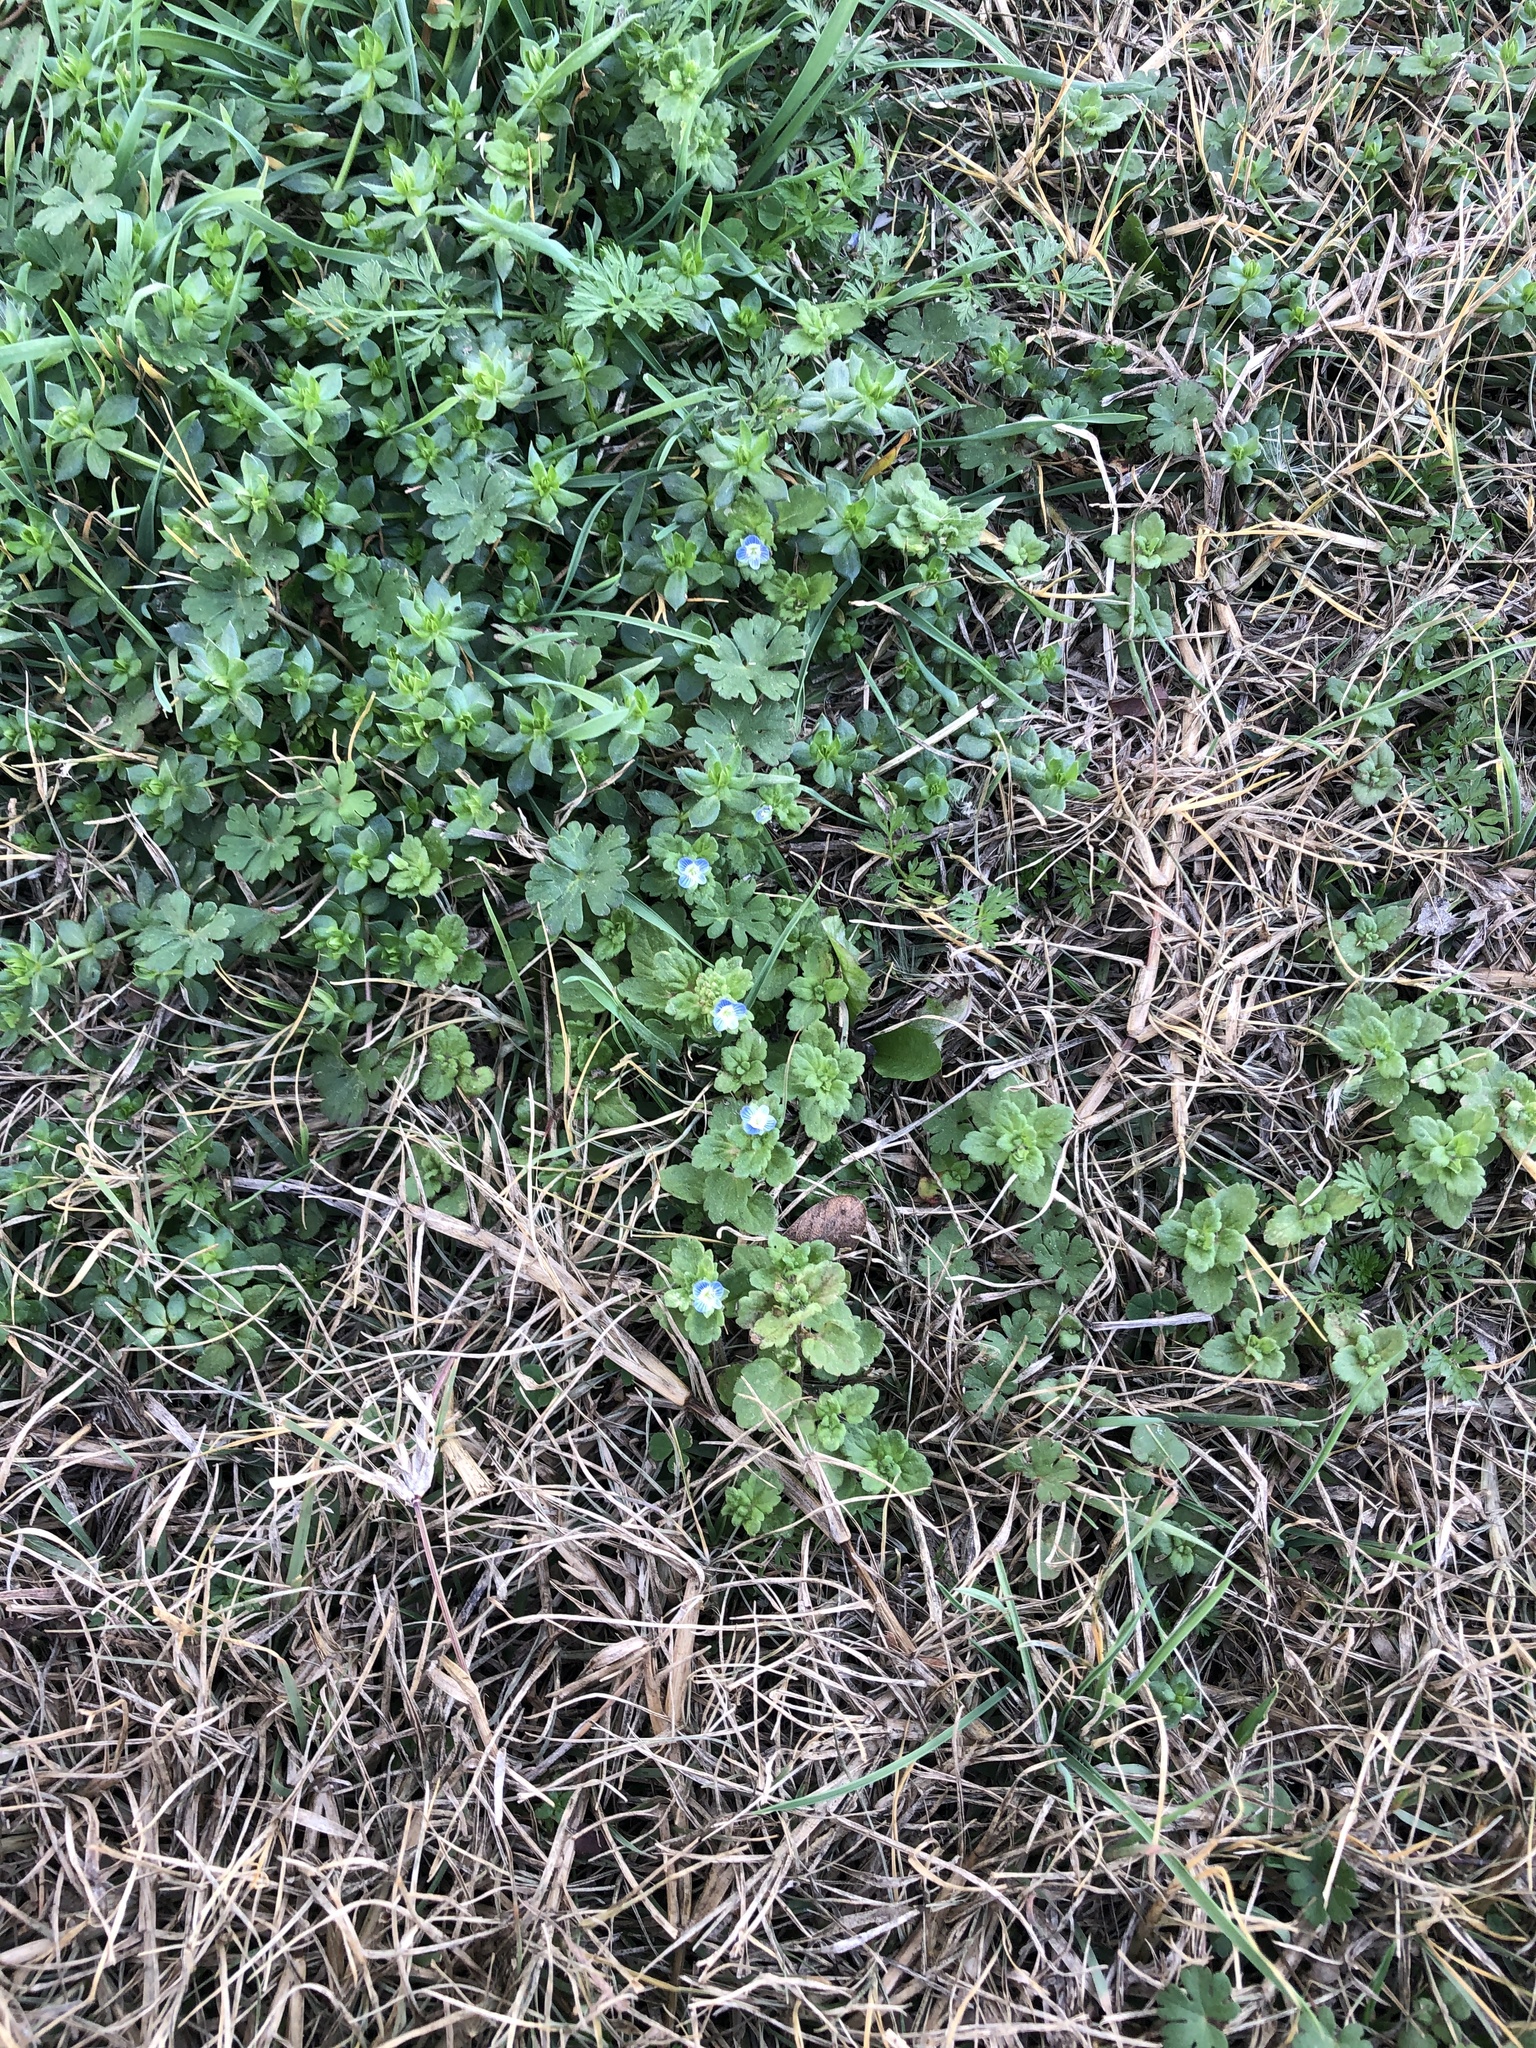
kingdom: Plantae
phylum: Tracheophyta
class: Magnoliopsida
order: Lamiales
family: Plantaginaceae
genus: Veronica
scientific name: Veronica polita
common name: Grey field-speedwell
